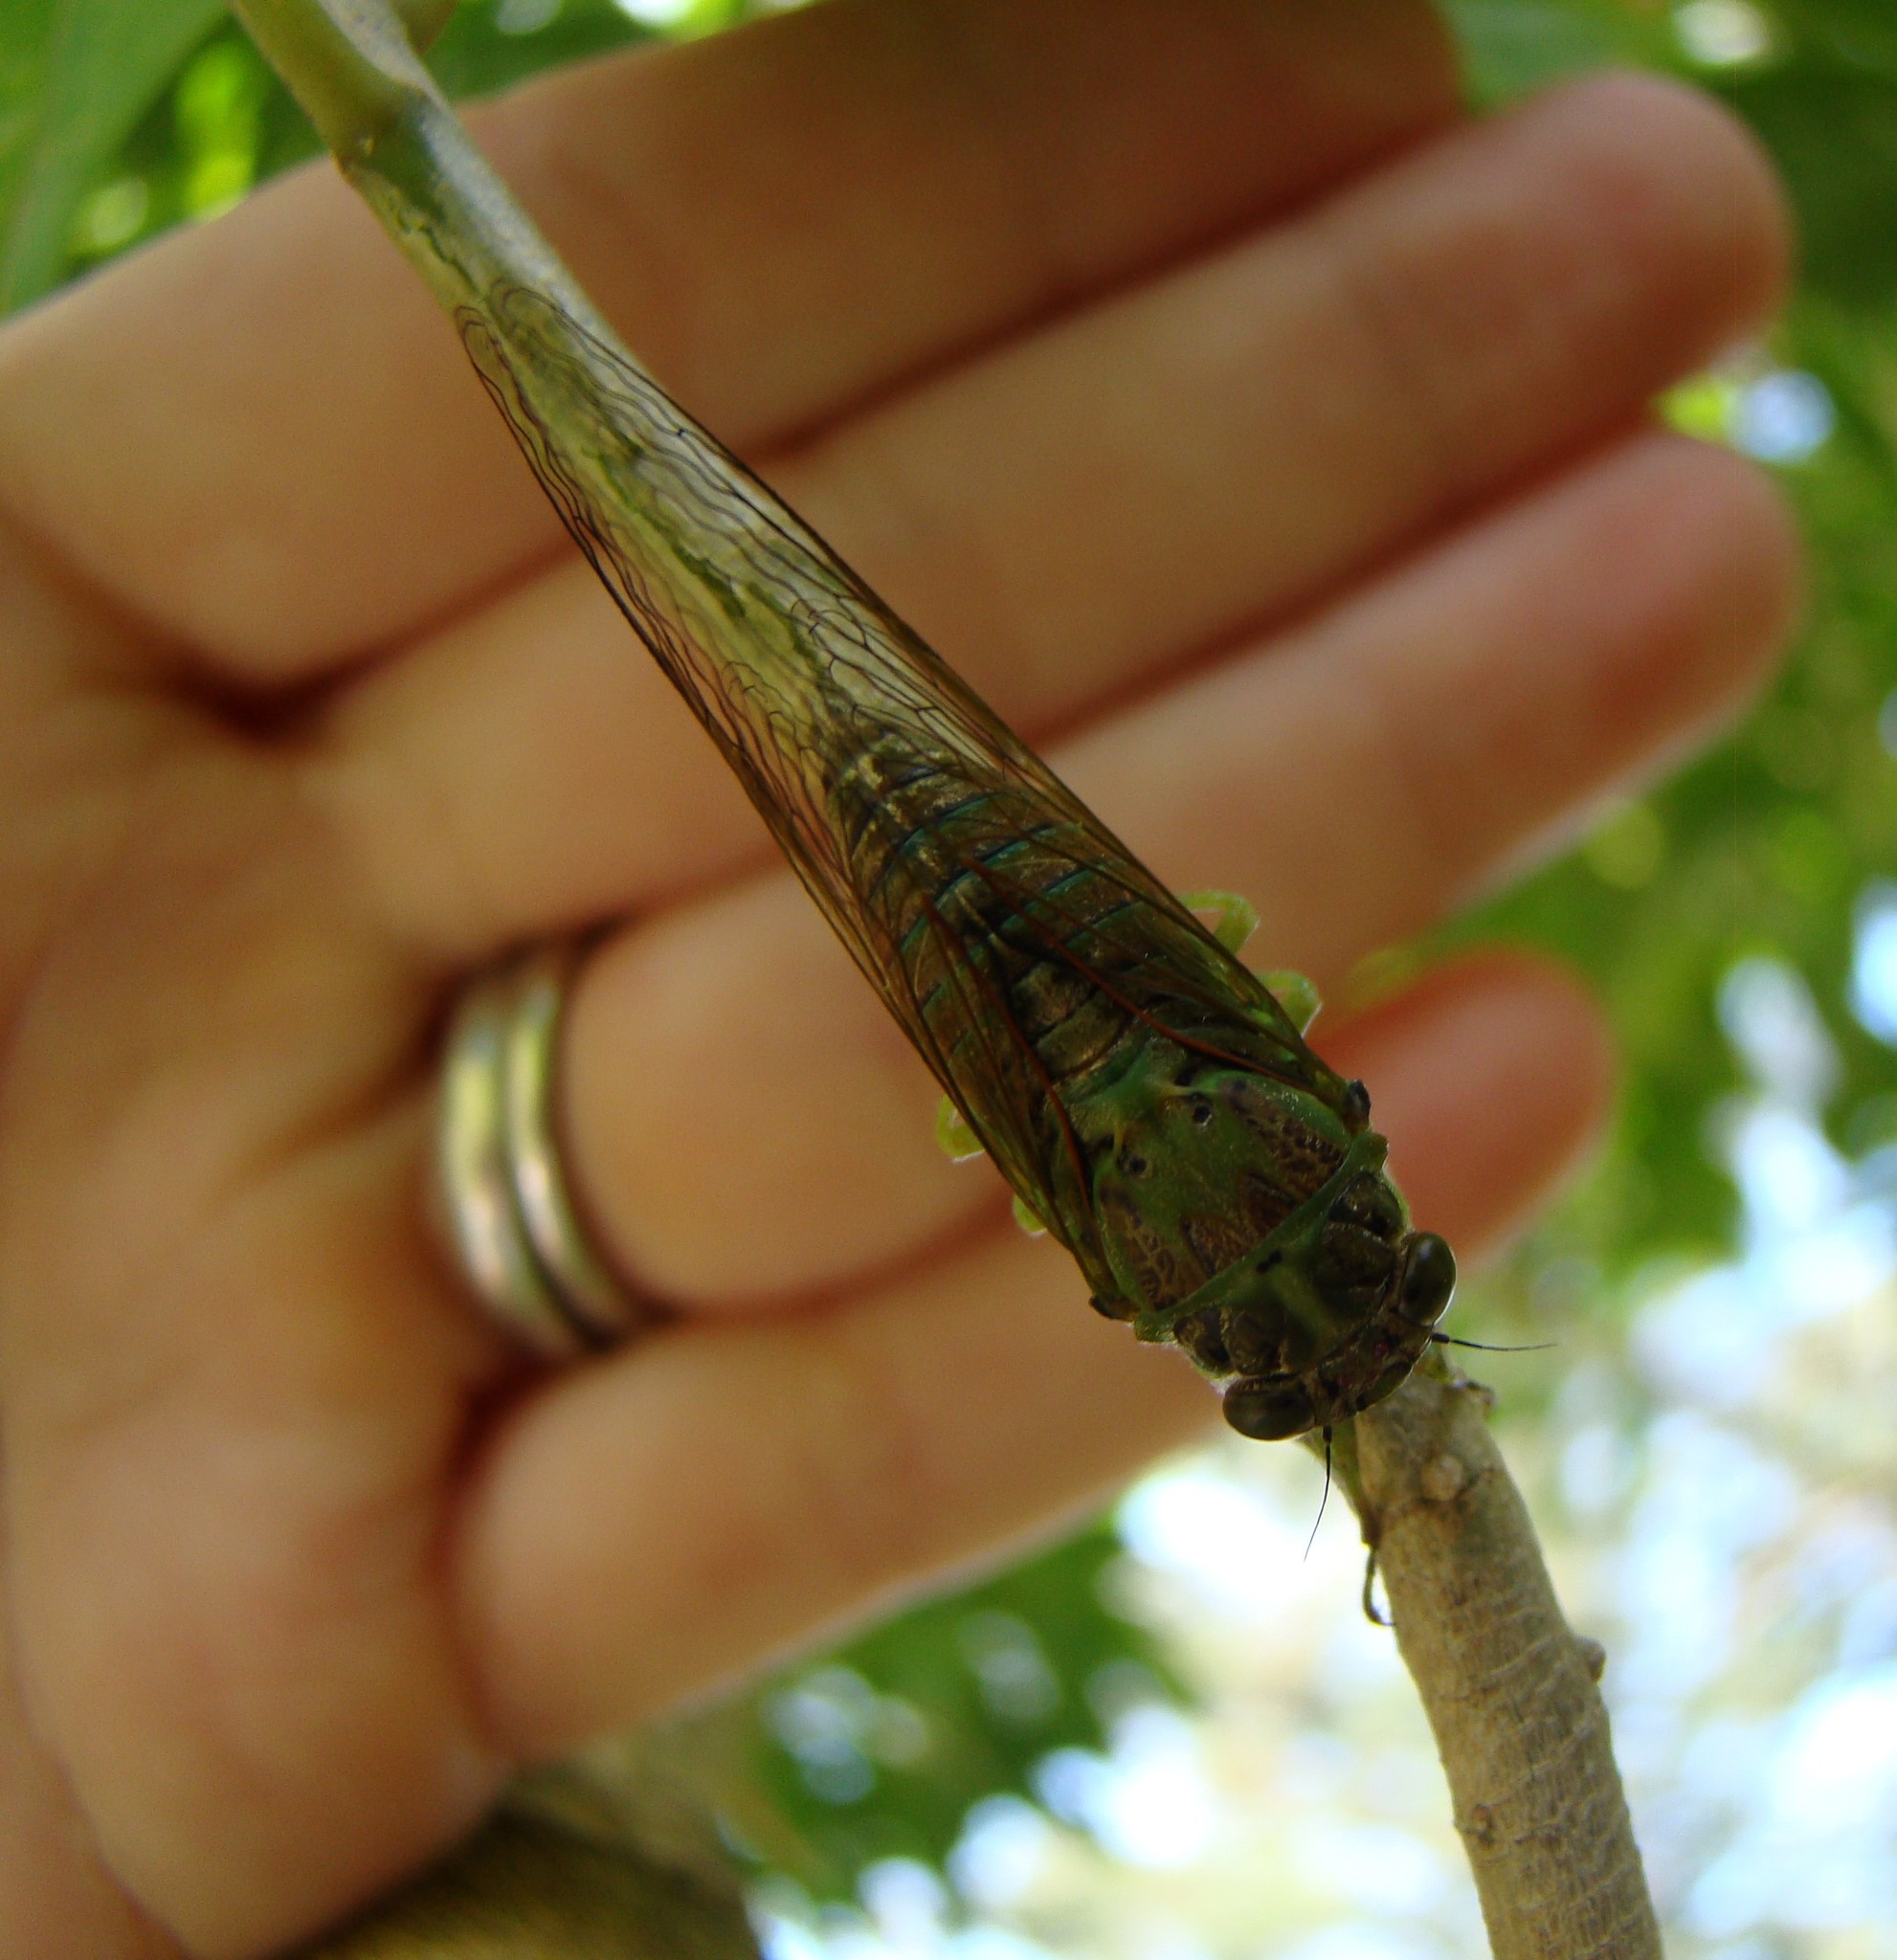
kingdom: Animalia
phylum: Arthropoda
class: Insecta
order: Hemiptera
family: Cicadidae
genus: Kikihia
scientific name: Kikihia scutellaris
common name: Lesser bronze cicada
